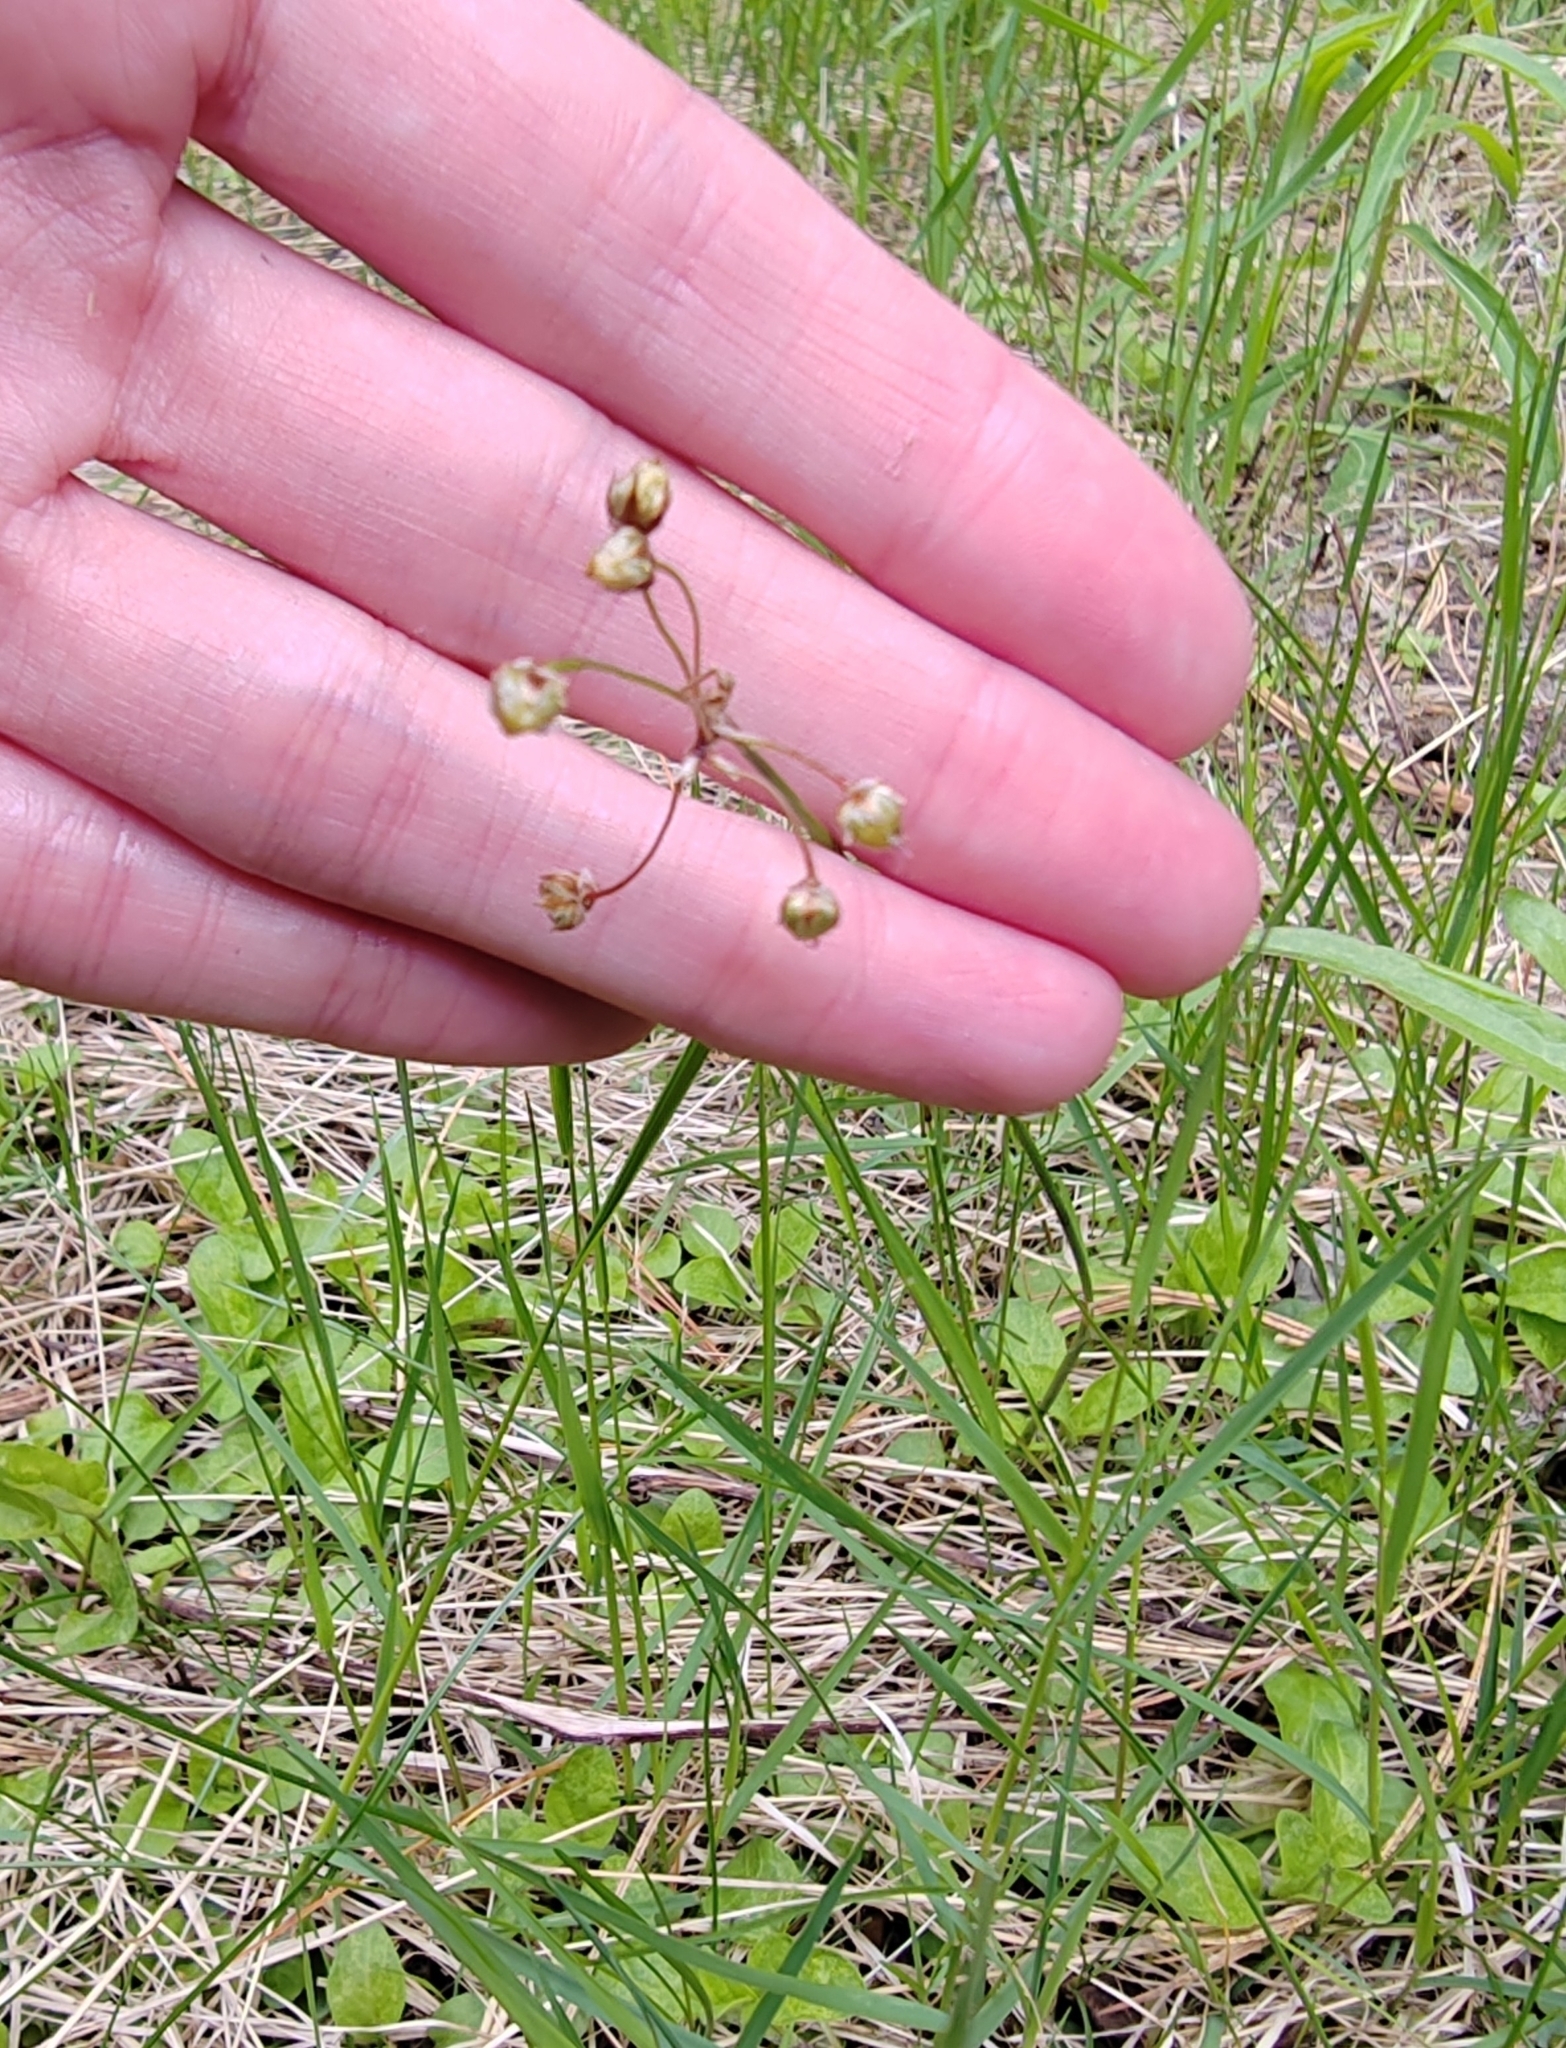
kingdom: Plantae
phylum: Tracheophyta
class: Magnoliopsida
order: Caryophyllales
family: Caryophyllaceae
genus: Spergula
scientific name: Spergula arvensis
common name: Corn spurrey
